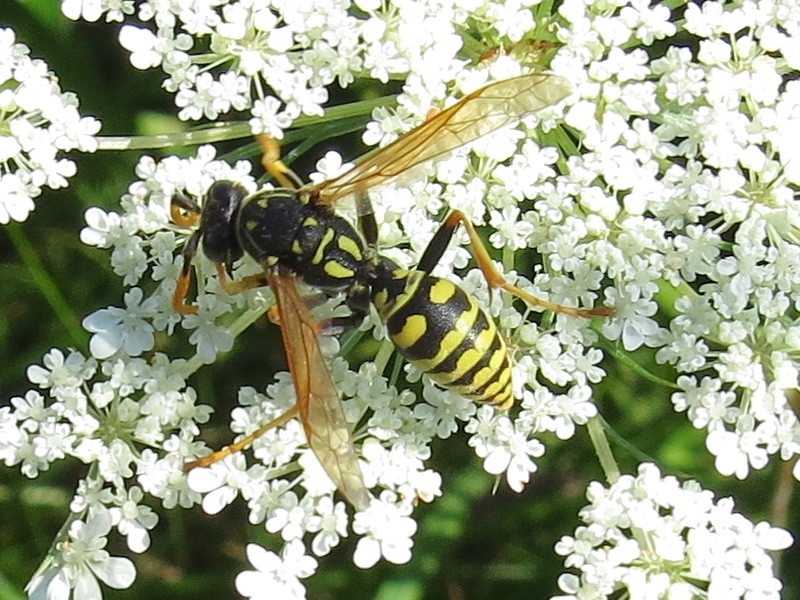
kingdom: Animalia
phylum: Arthropoda
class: Insecta
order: Hymenoptera
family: Eumenidae
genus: Polistes
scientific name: Polistes dominula
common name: Paper wasp
